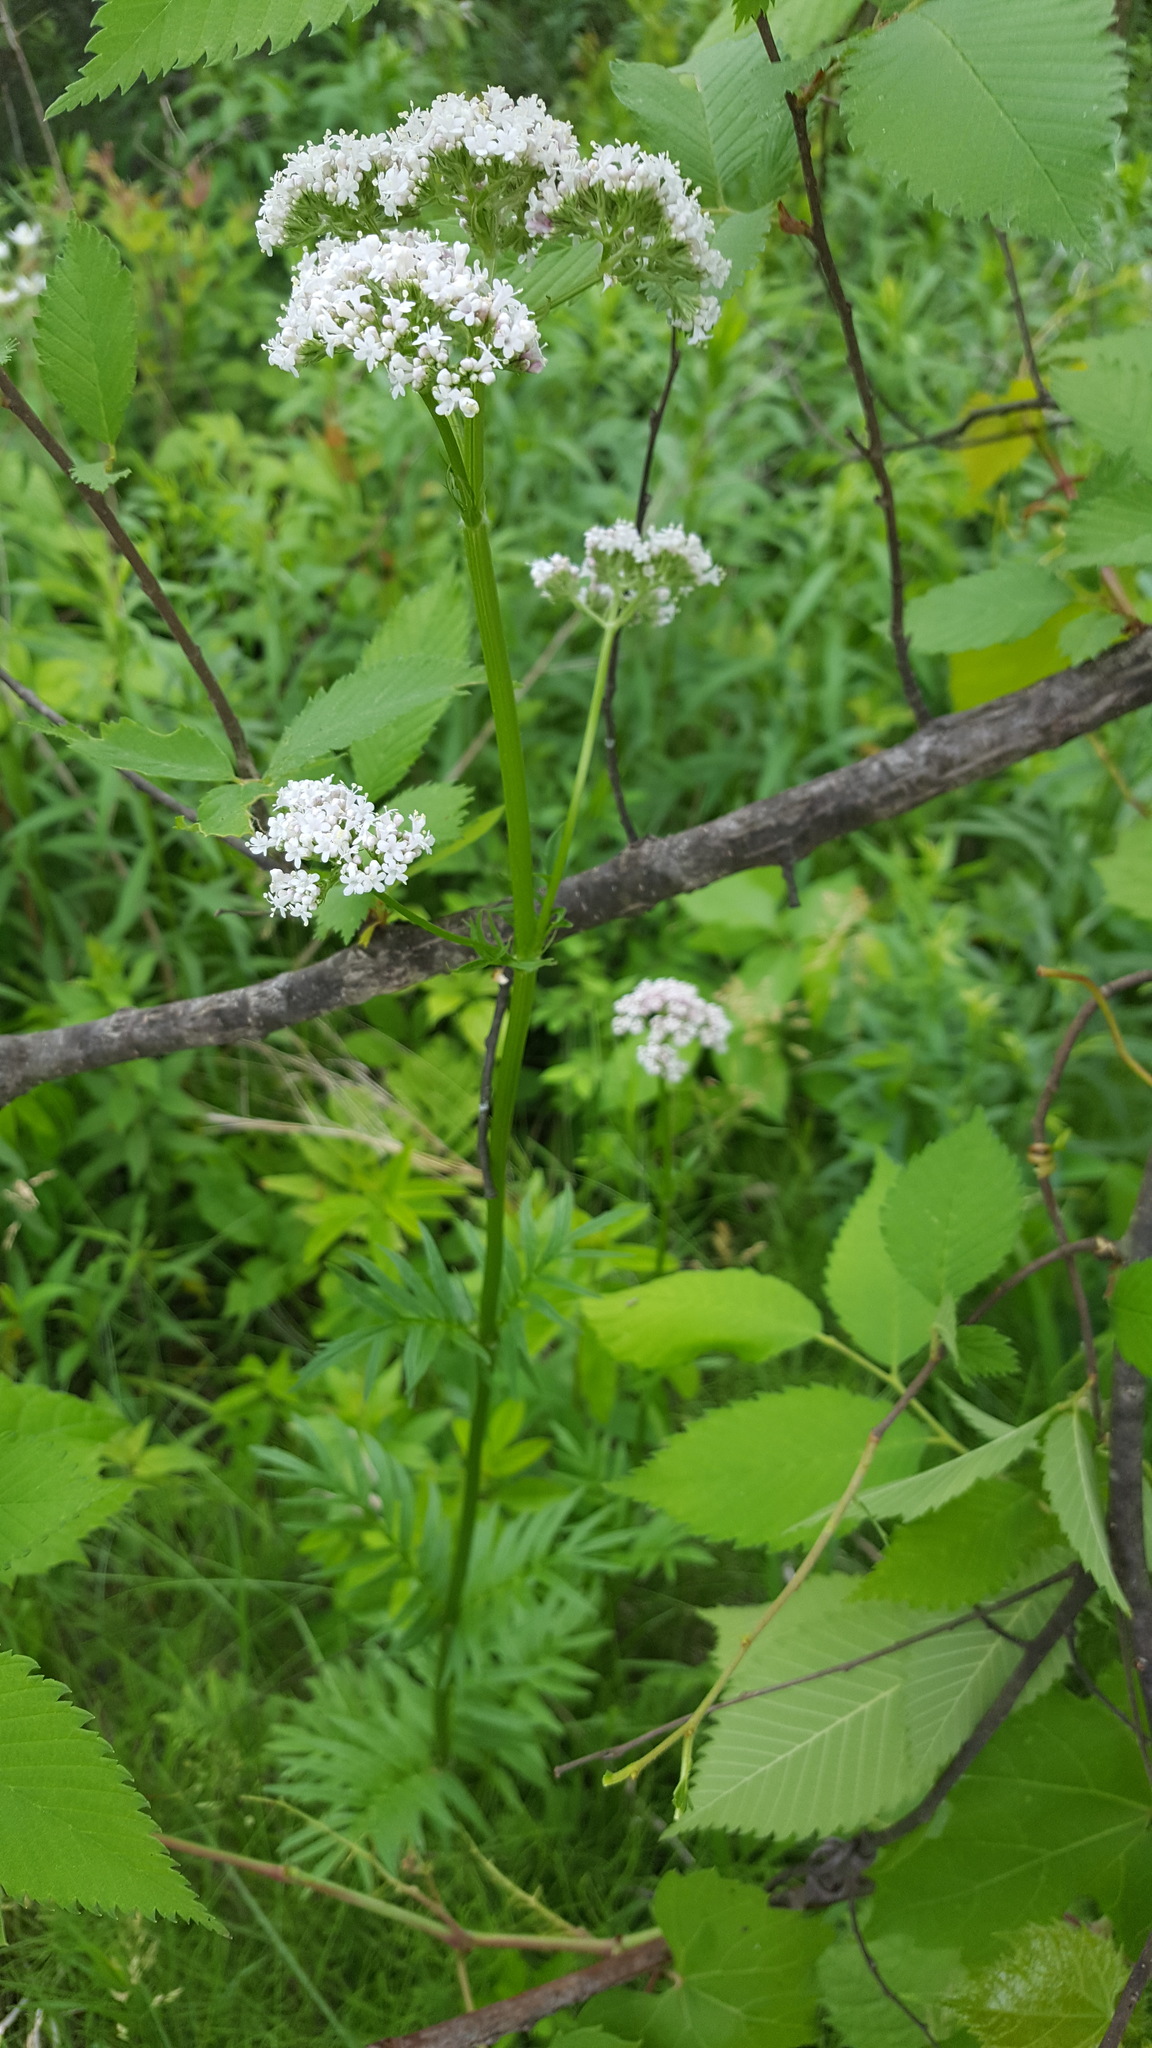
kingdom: Plantae
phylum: Tracheophyta
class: Magnoliopsida
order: Dipsacales
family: Caprifoliaceae
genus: Valeriana
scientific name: Valeriana officinalis
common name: Common valerian
